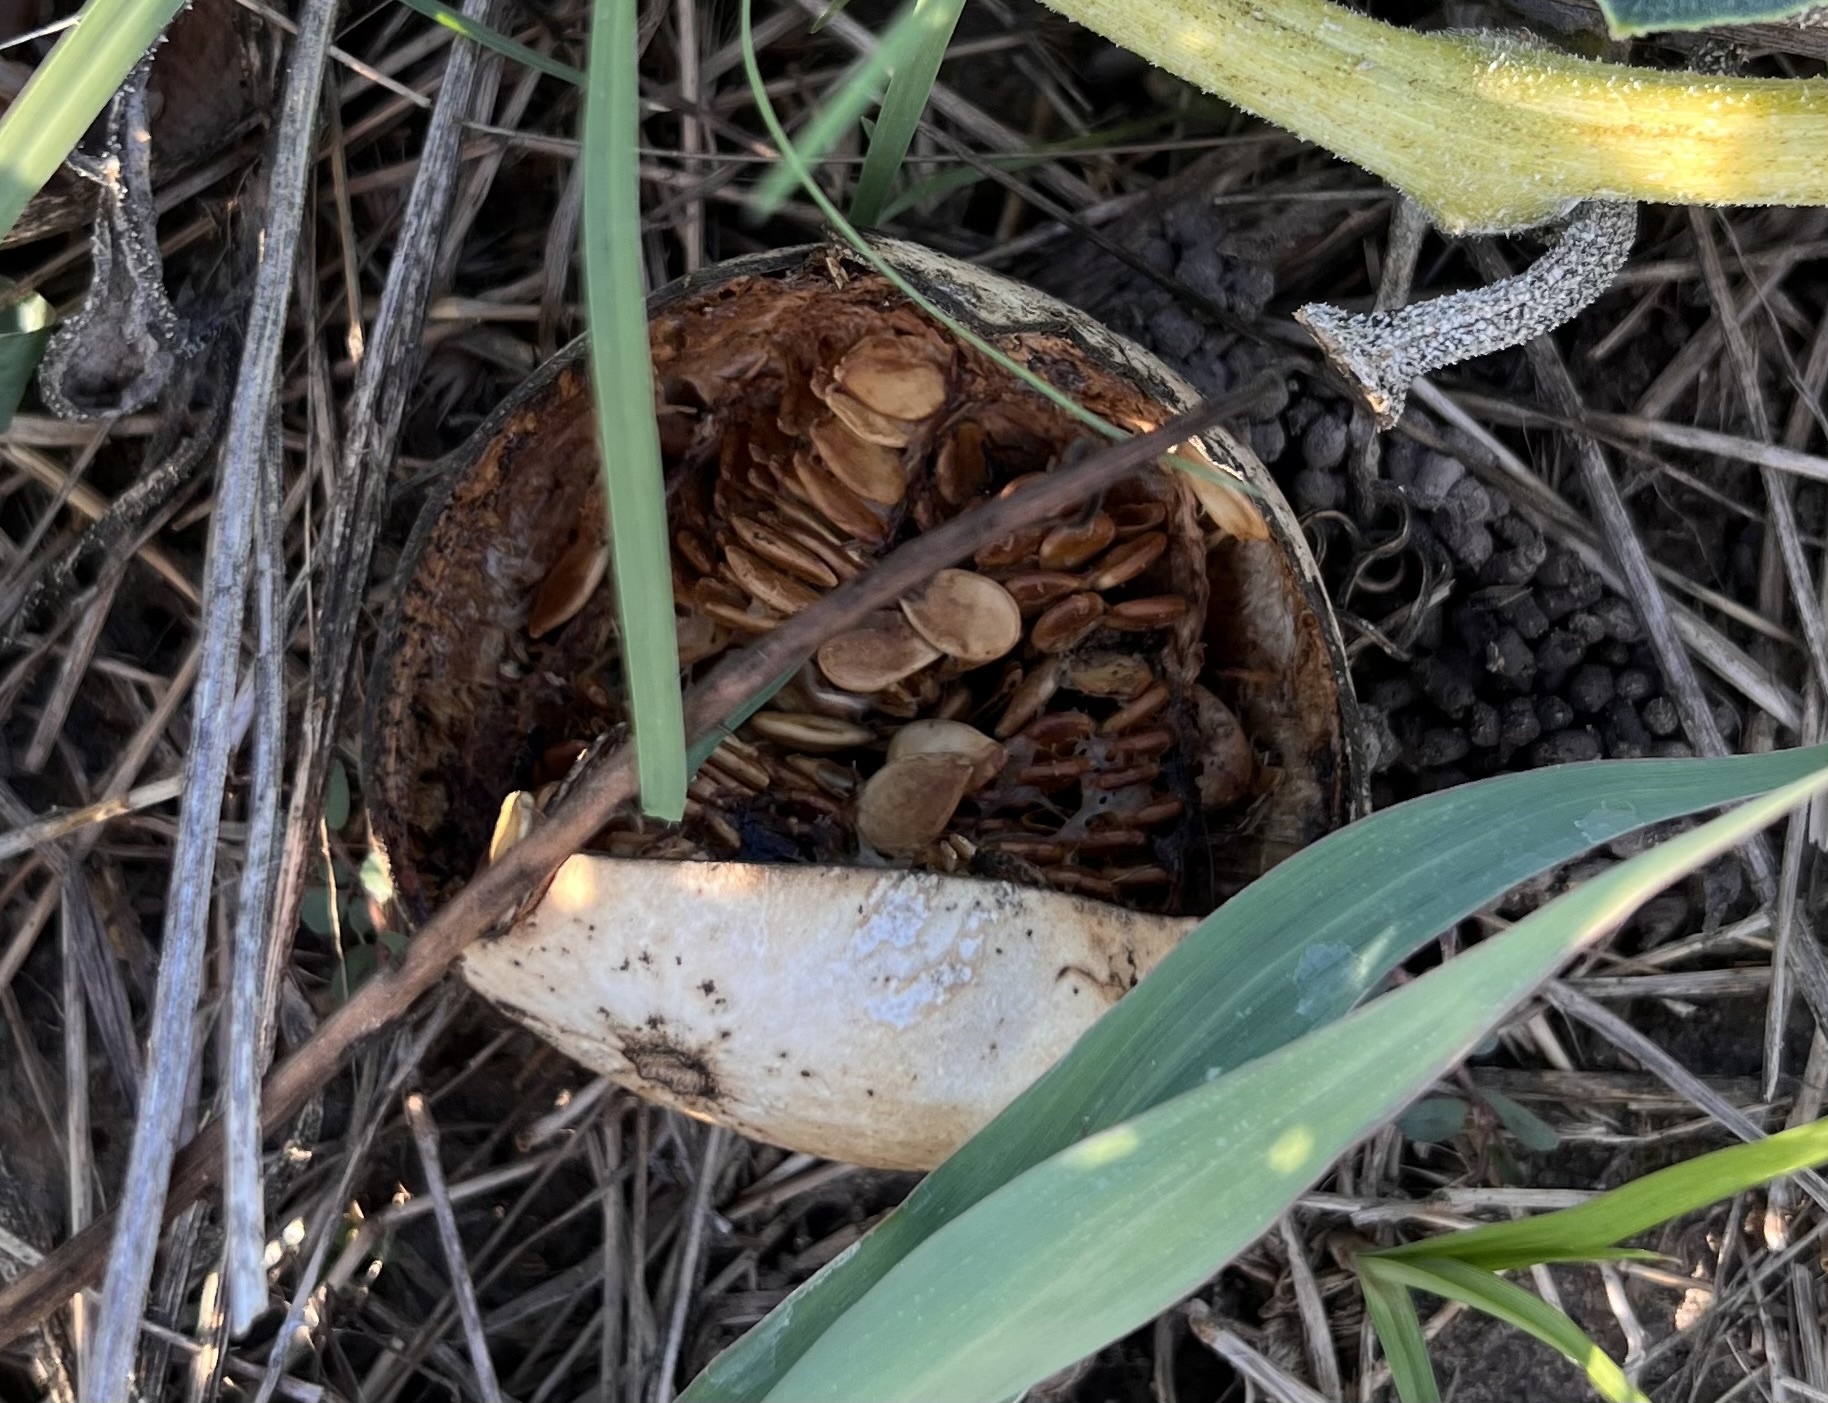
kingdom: Plantae
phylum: Tracheophyta
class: Magnoliopsida
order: Cucurbitales
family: Cucurbitaceae
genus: Cucurbita
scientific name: Cucurbita foetidissima
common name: Buffalo gourd
